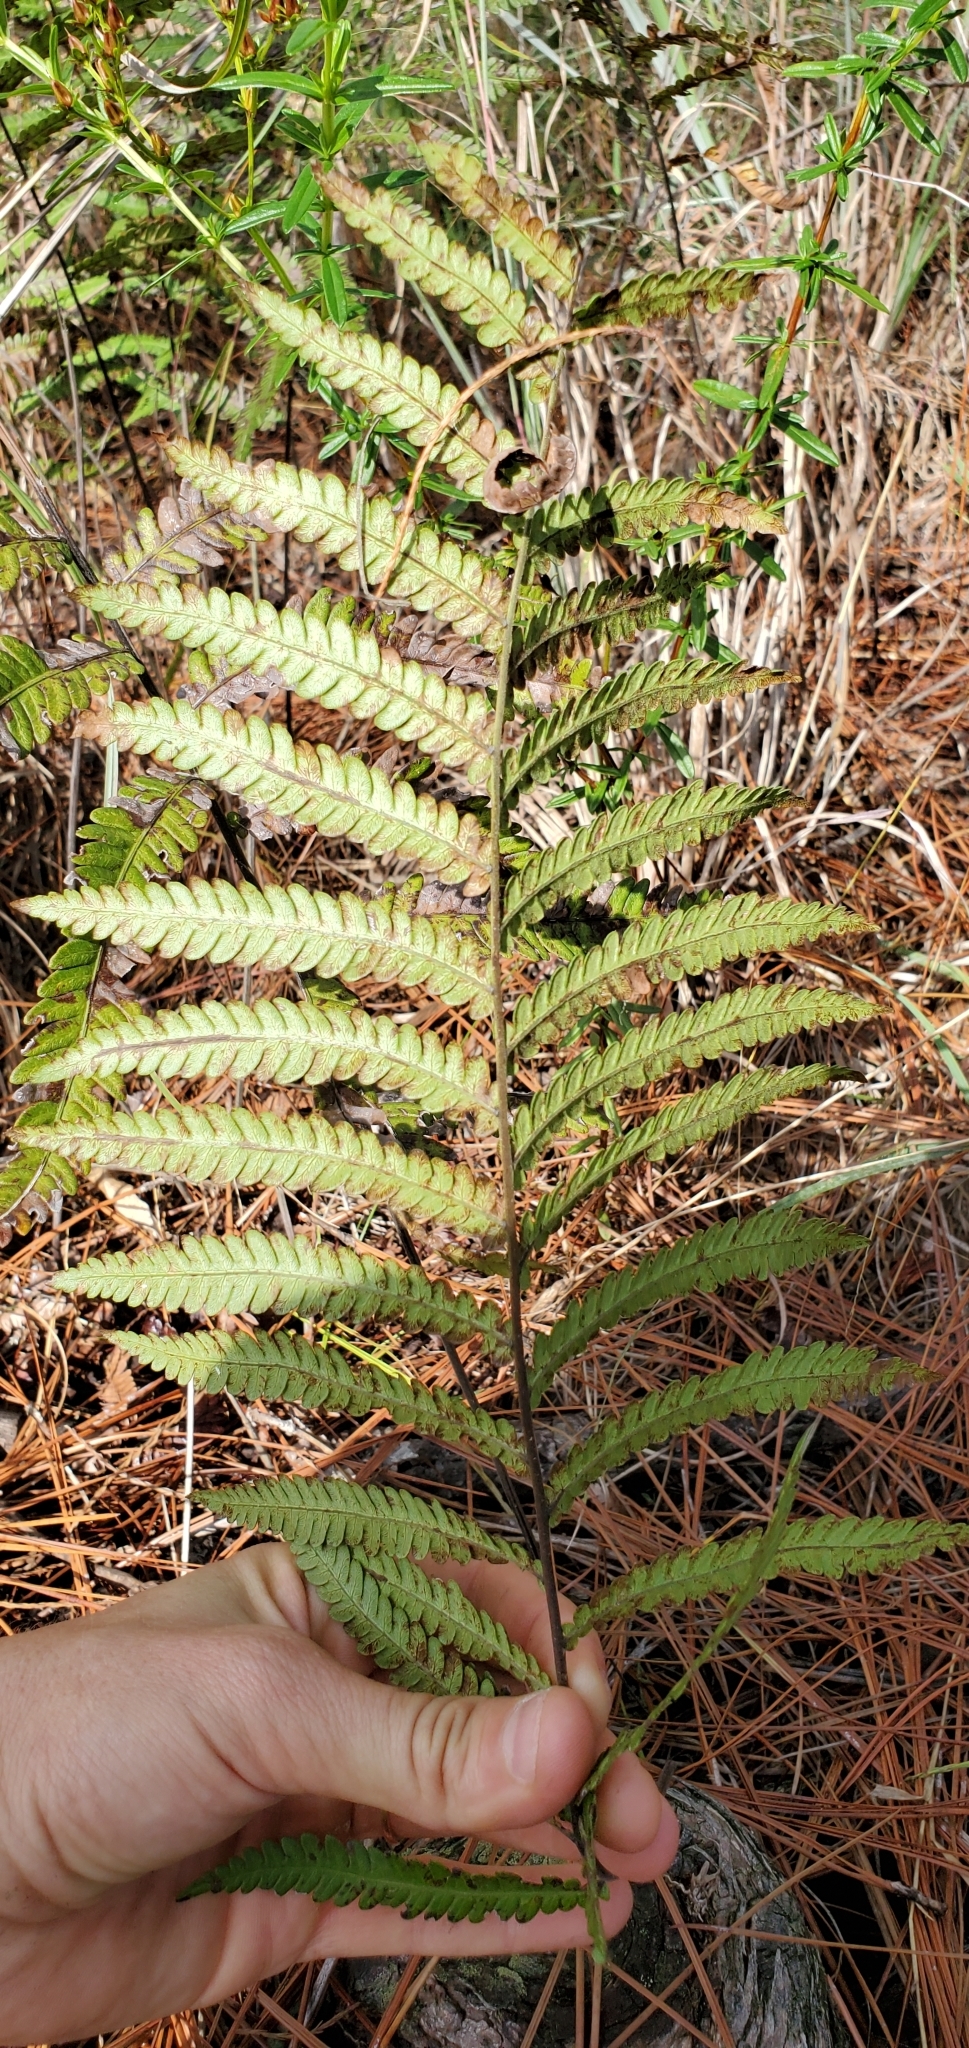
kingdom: Plantae
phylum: Tracheophyta
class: Polypodiopsida
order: Polypodiales
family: Blechnaceae
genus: Anchistea
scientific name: Anchistea virginica
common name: Virginia chain fern
